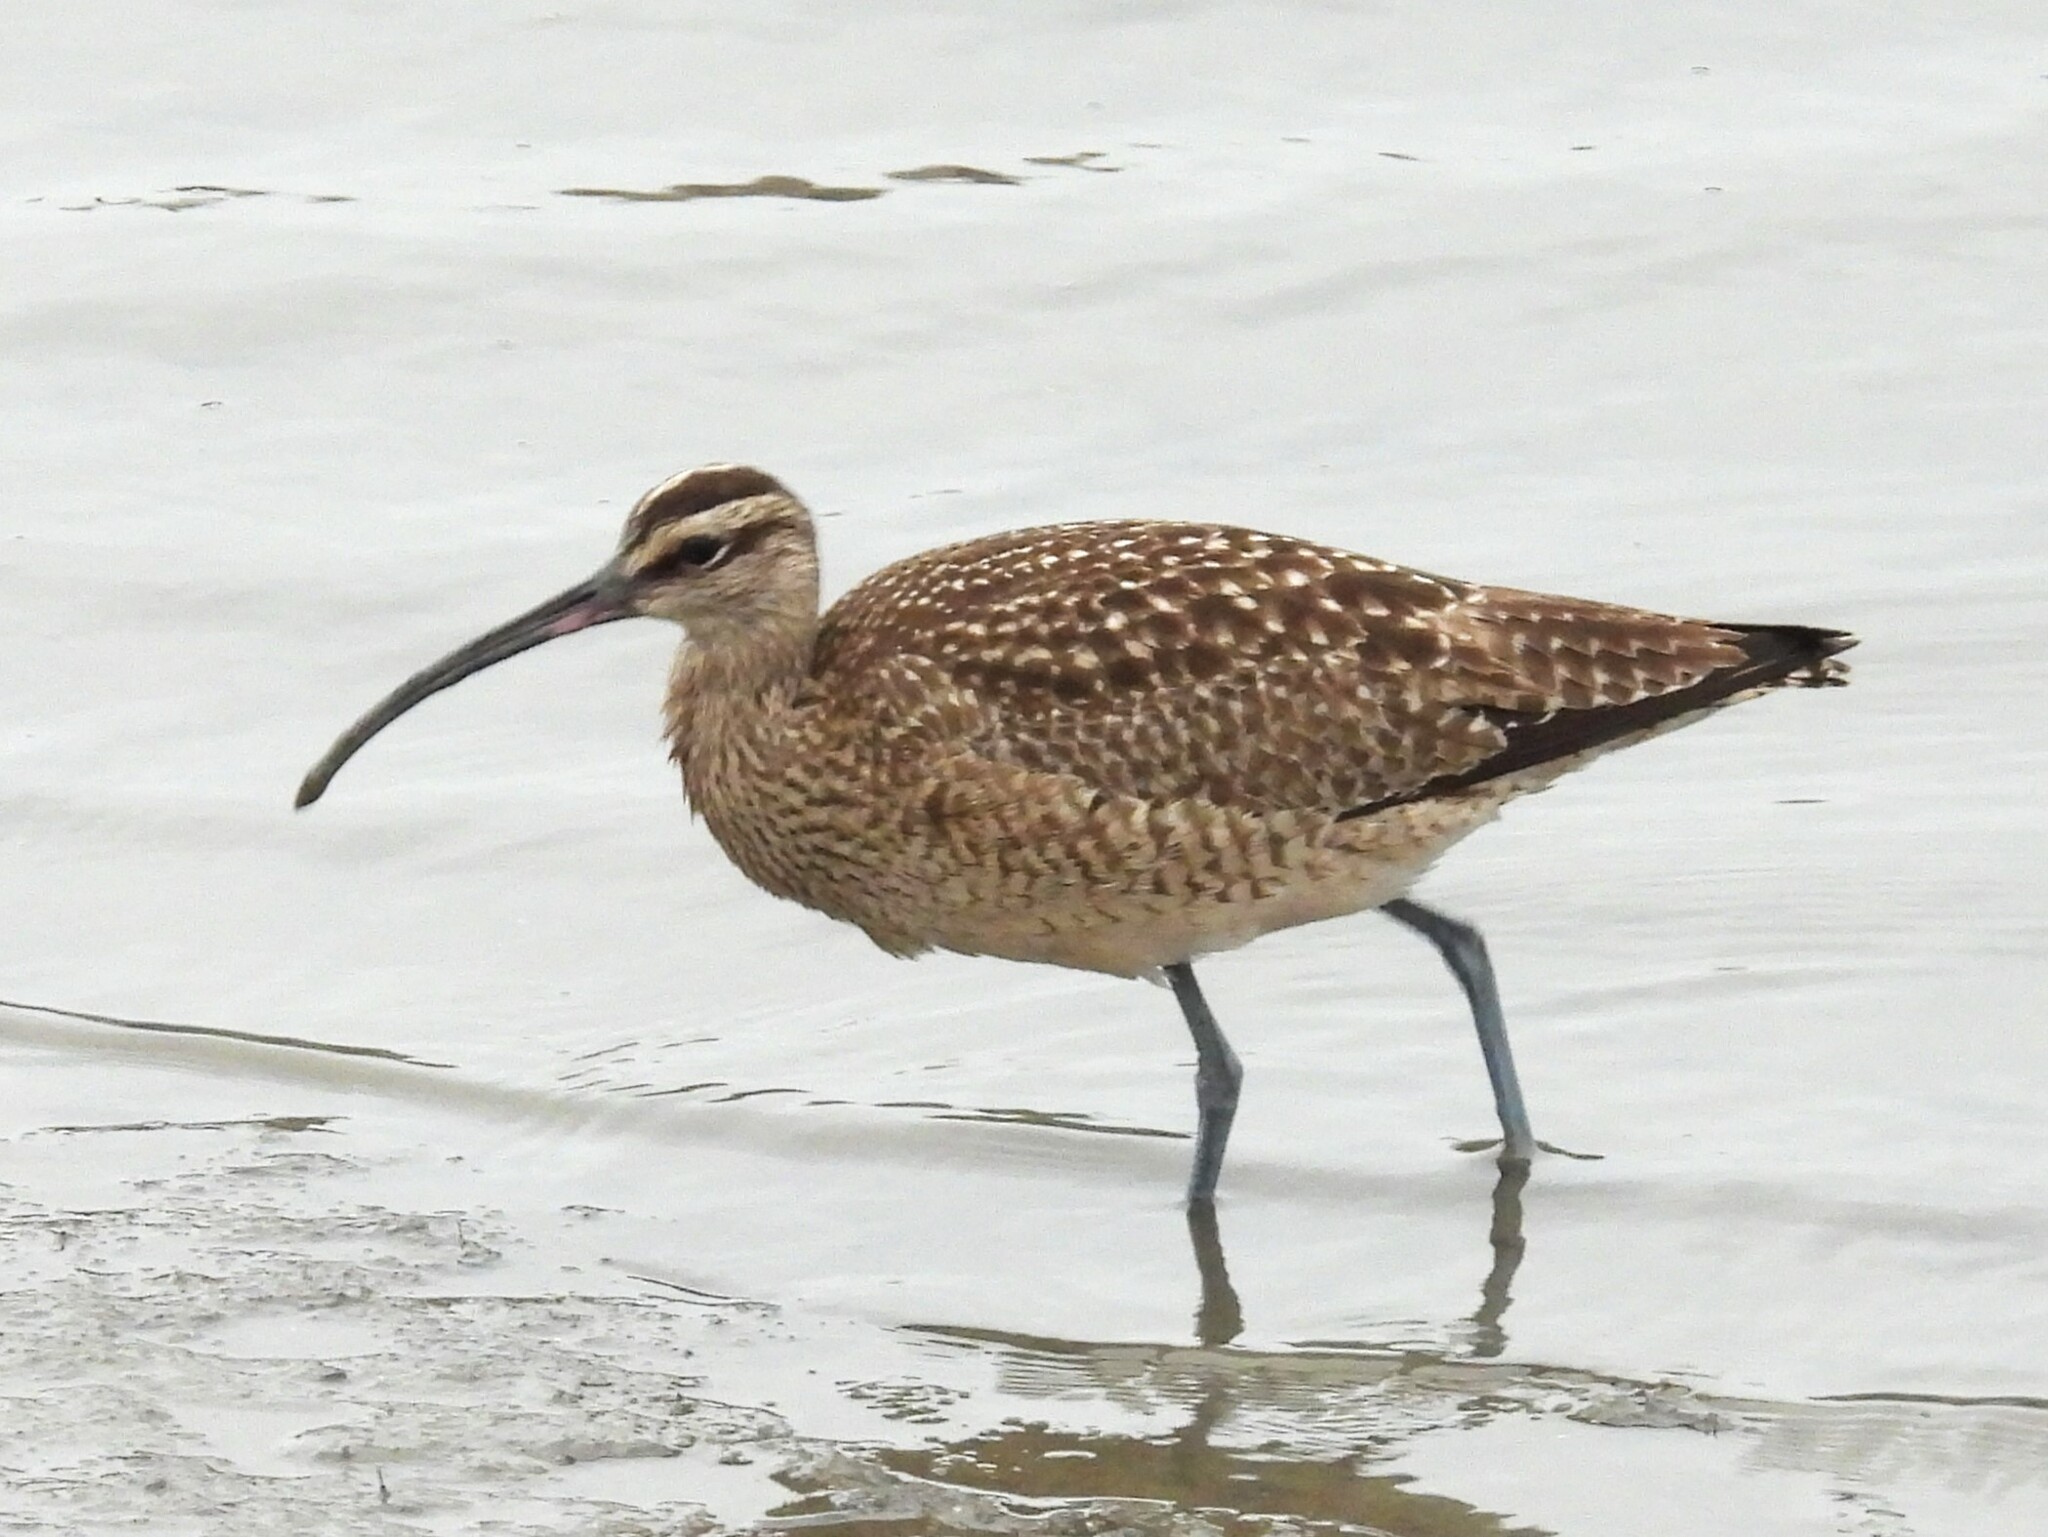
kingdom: Animalia
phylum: Chordata
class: Aves
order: Charadriiformes
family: Scolopacidae
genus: Numenius
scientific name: Numenius phaeopus
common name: Whimbrel
